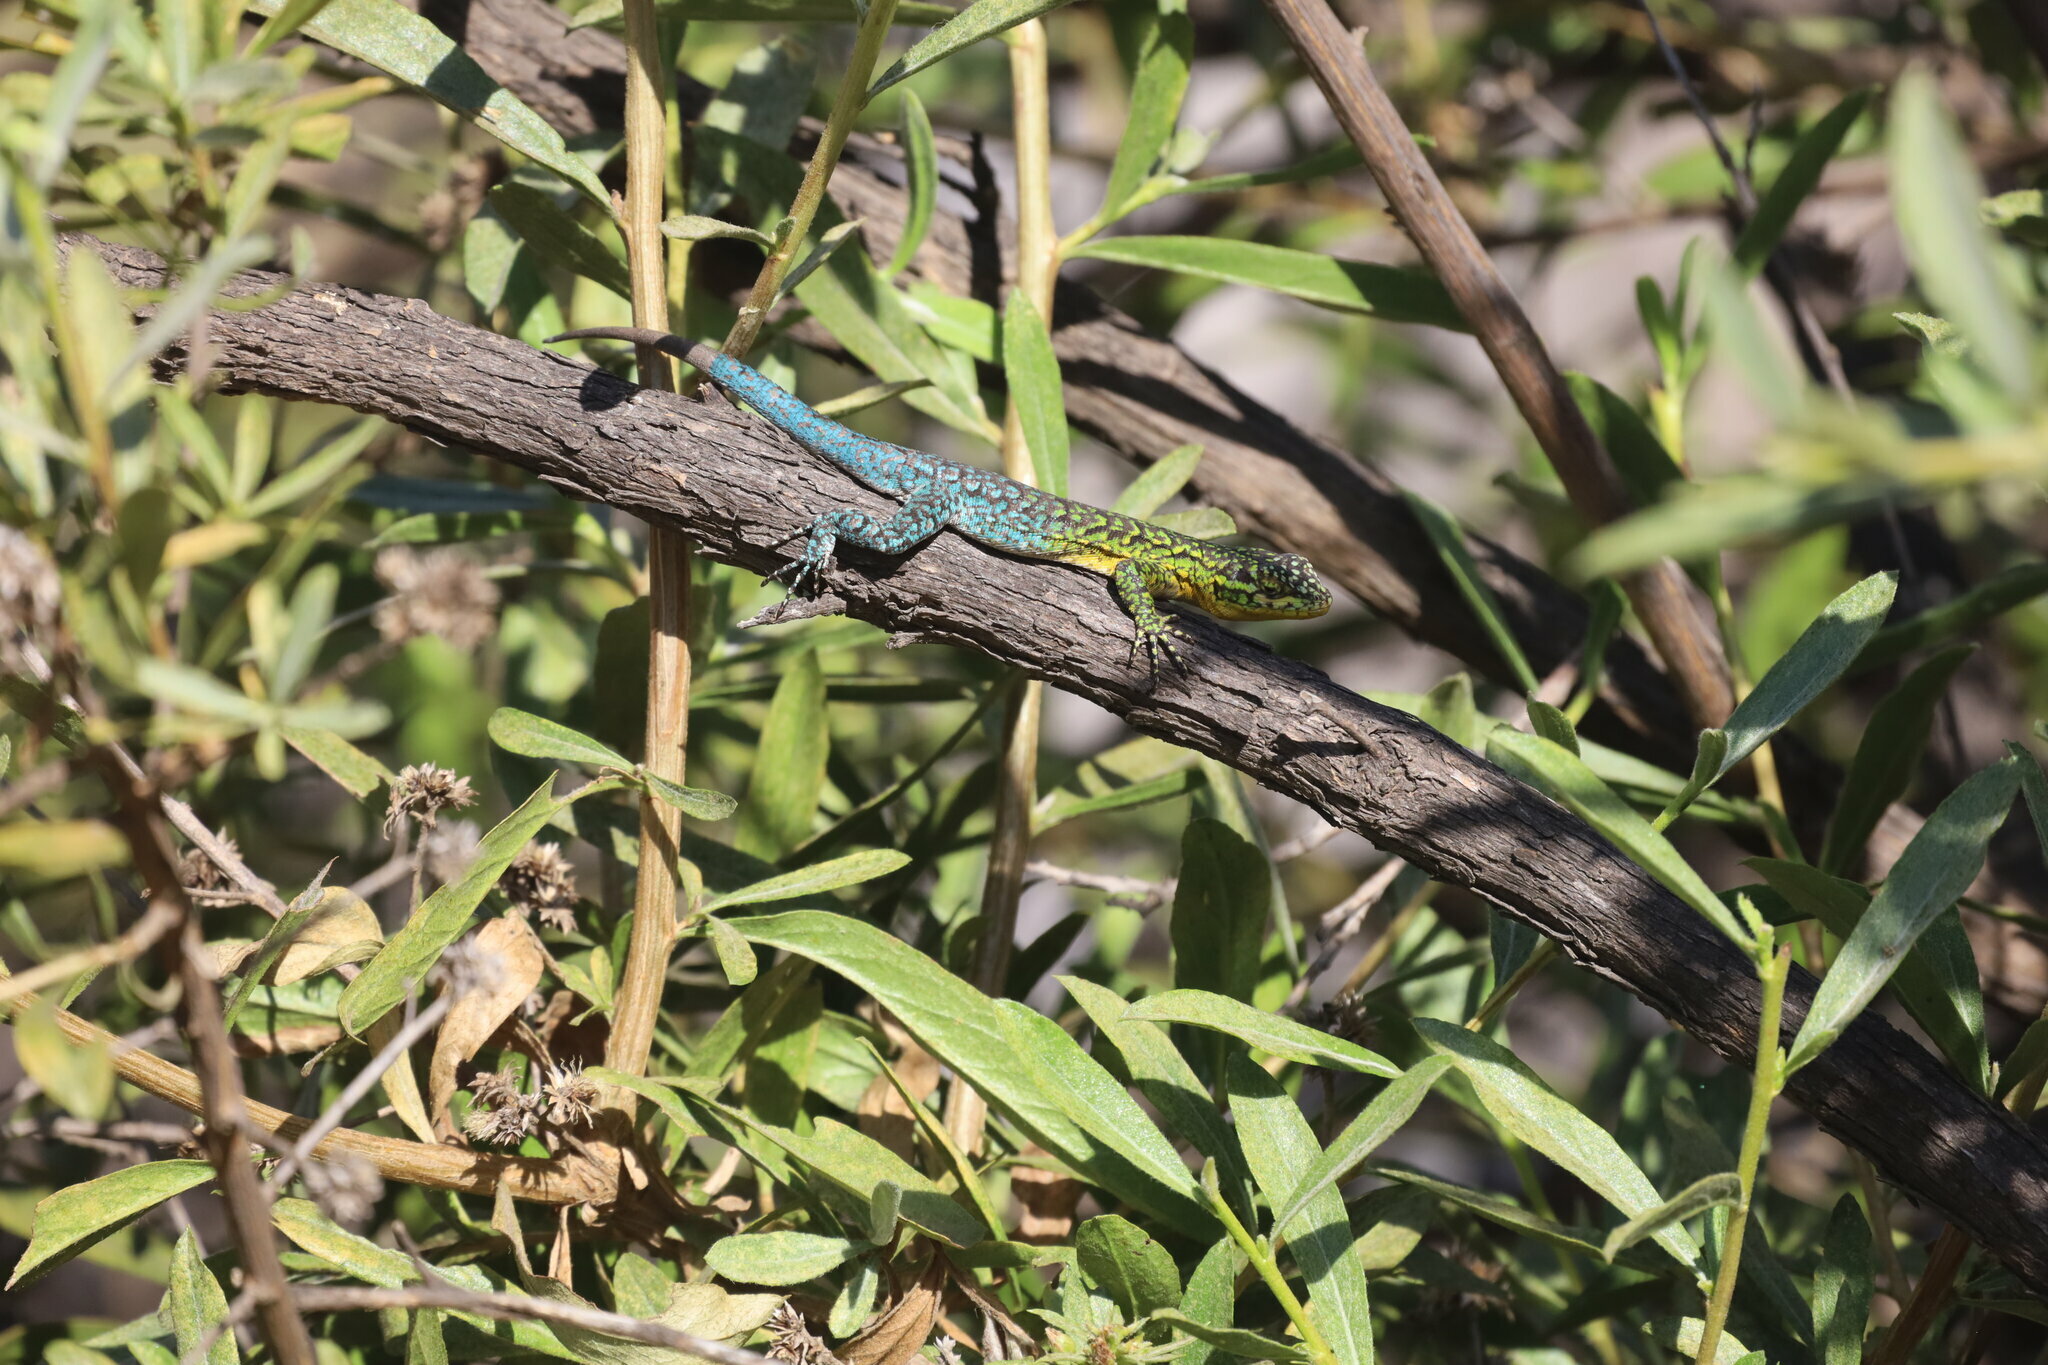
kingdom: Animalia
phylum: Chordata
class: Squamata
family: Liolaemidae
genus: Liolaemus
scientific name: Liolaemus tenuis
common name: Thin tree iguana
